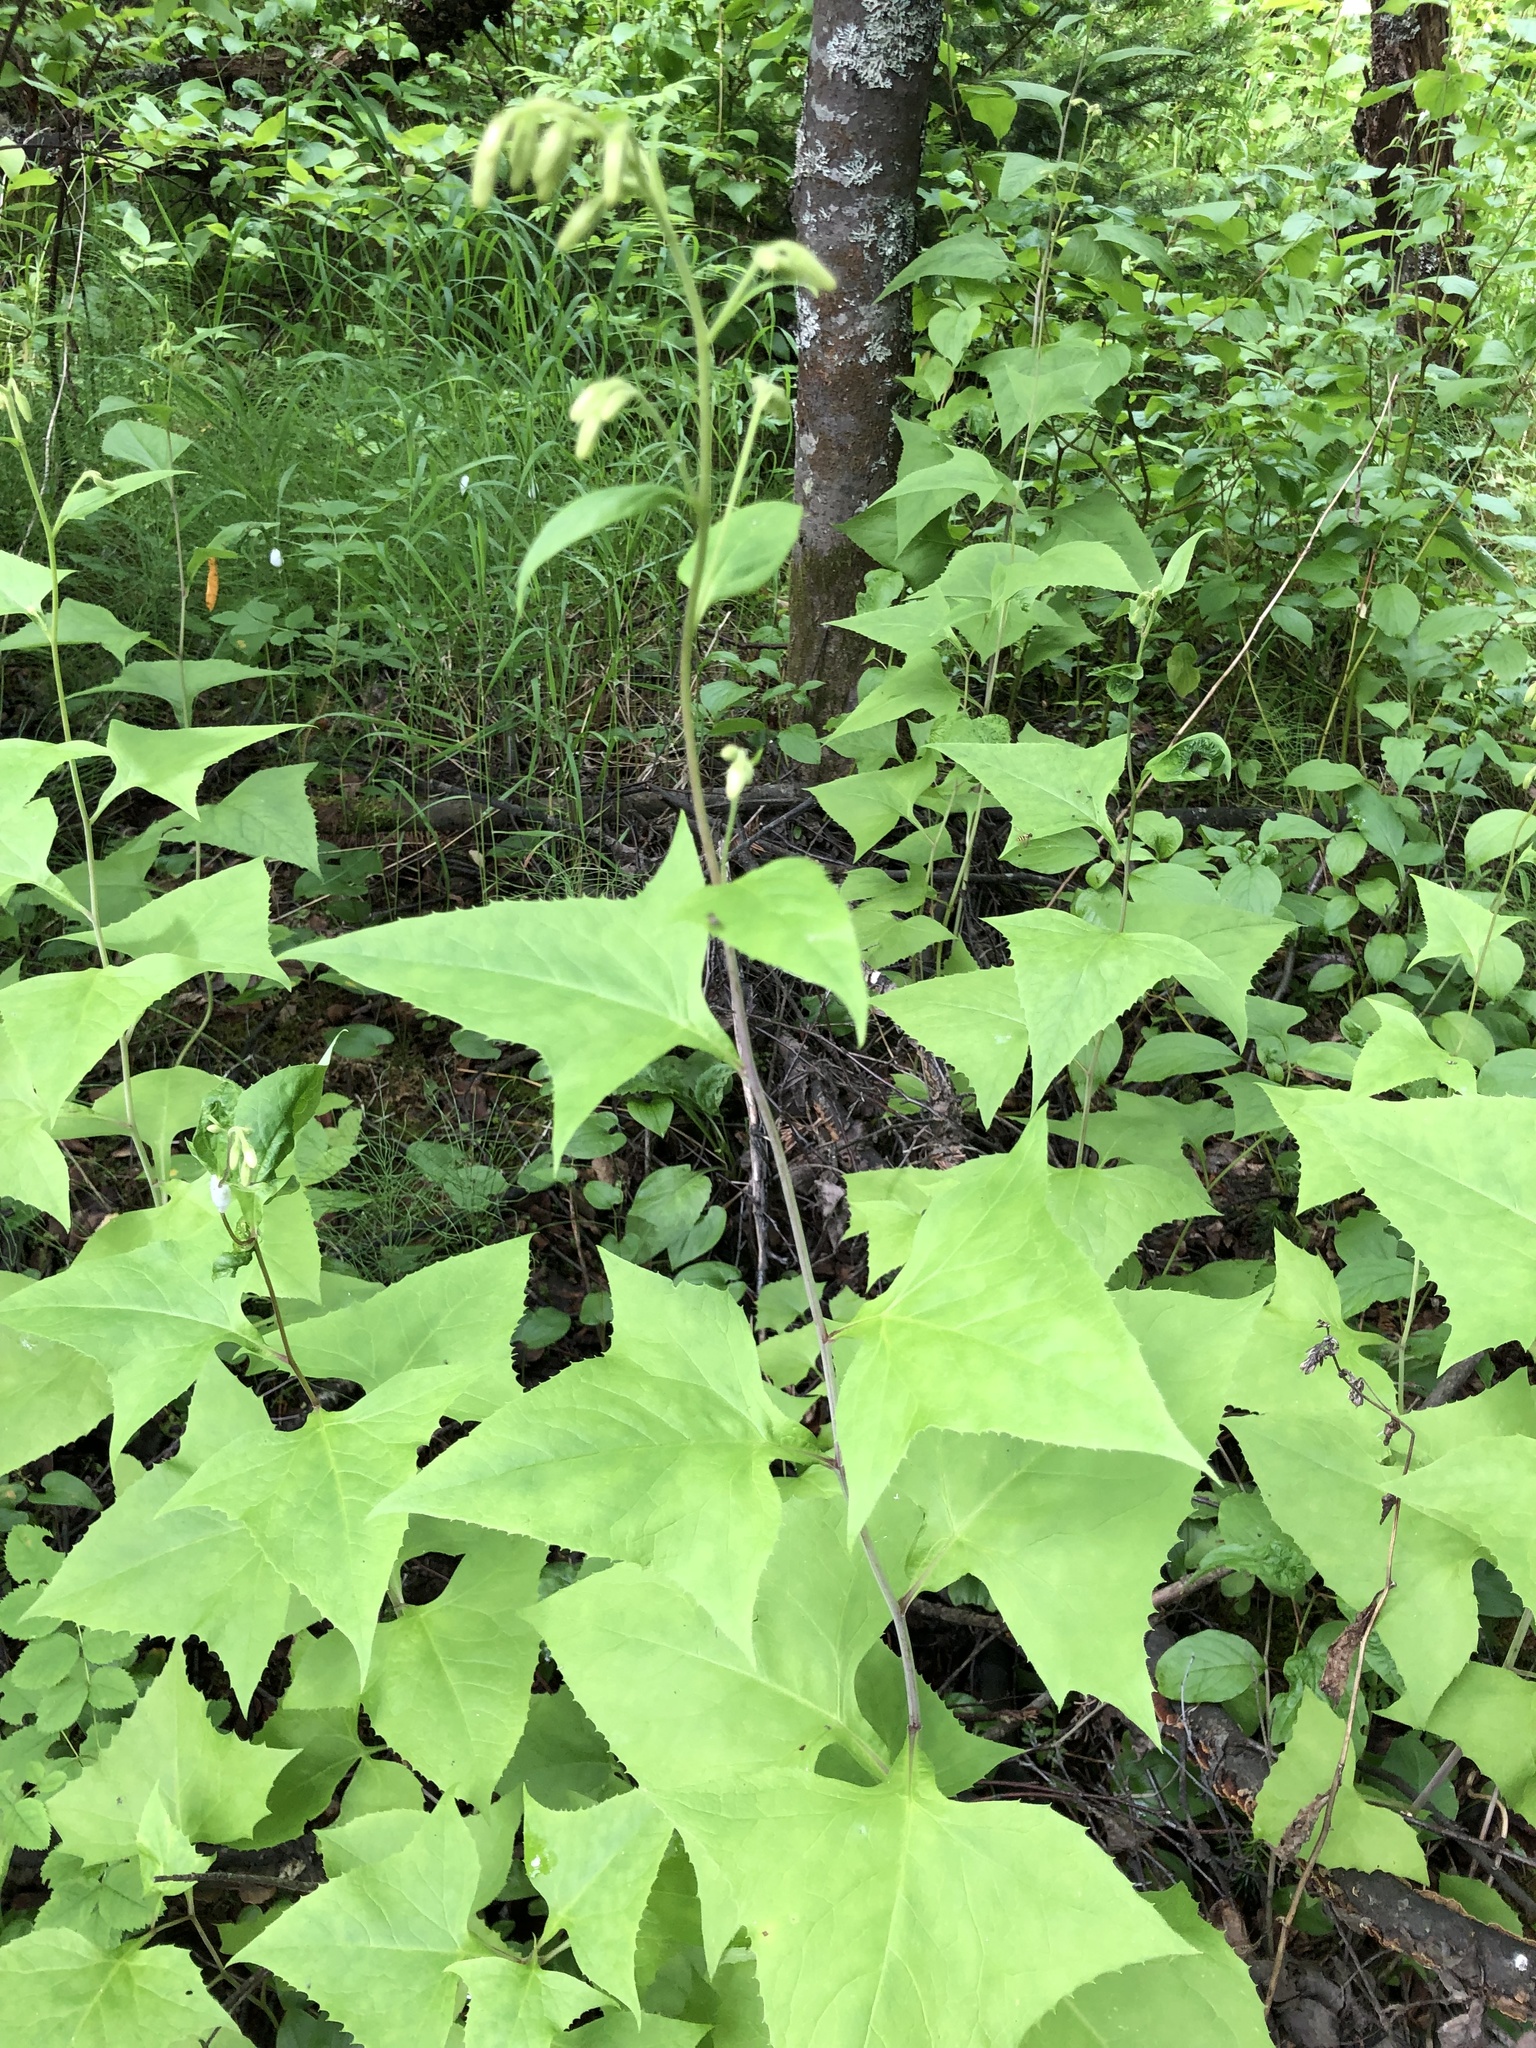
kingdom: Plantae
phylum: Tracheophyta
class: Magnoliopsida
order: Asterales
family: Asteraceae
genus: Parasenecio
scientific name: Parasenecio hastatus
